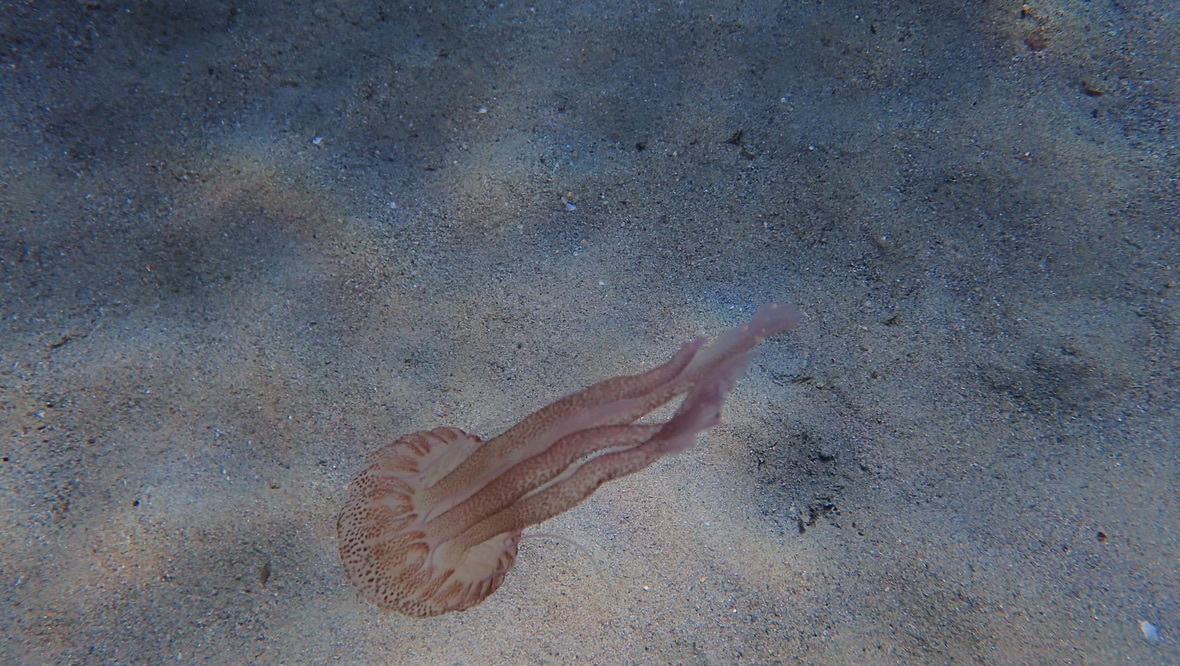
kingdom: Animalia
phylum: Cnidaria
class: Scyphozoa
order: Semaeostomeae
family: Pelagiidae
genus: Pelagia
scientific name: Pelagia noctiluca
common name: Mauve stinger
